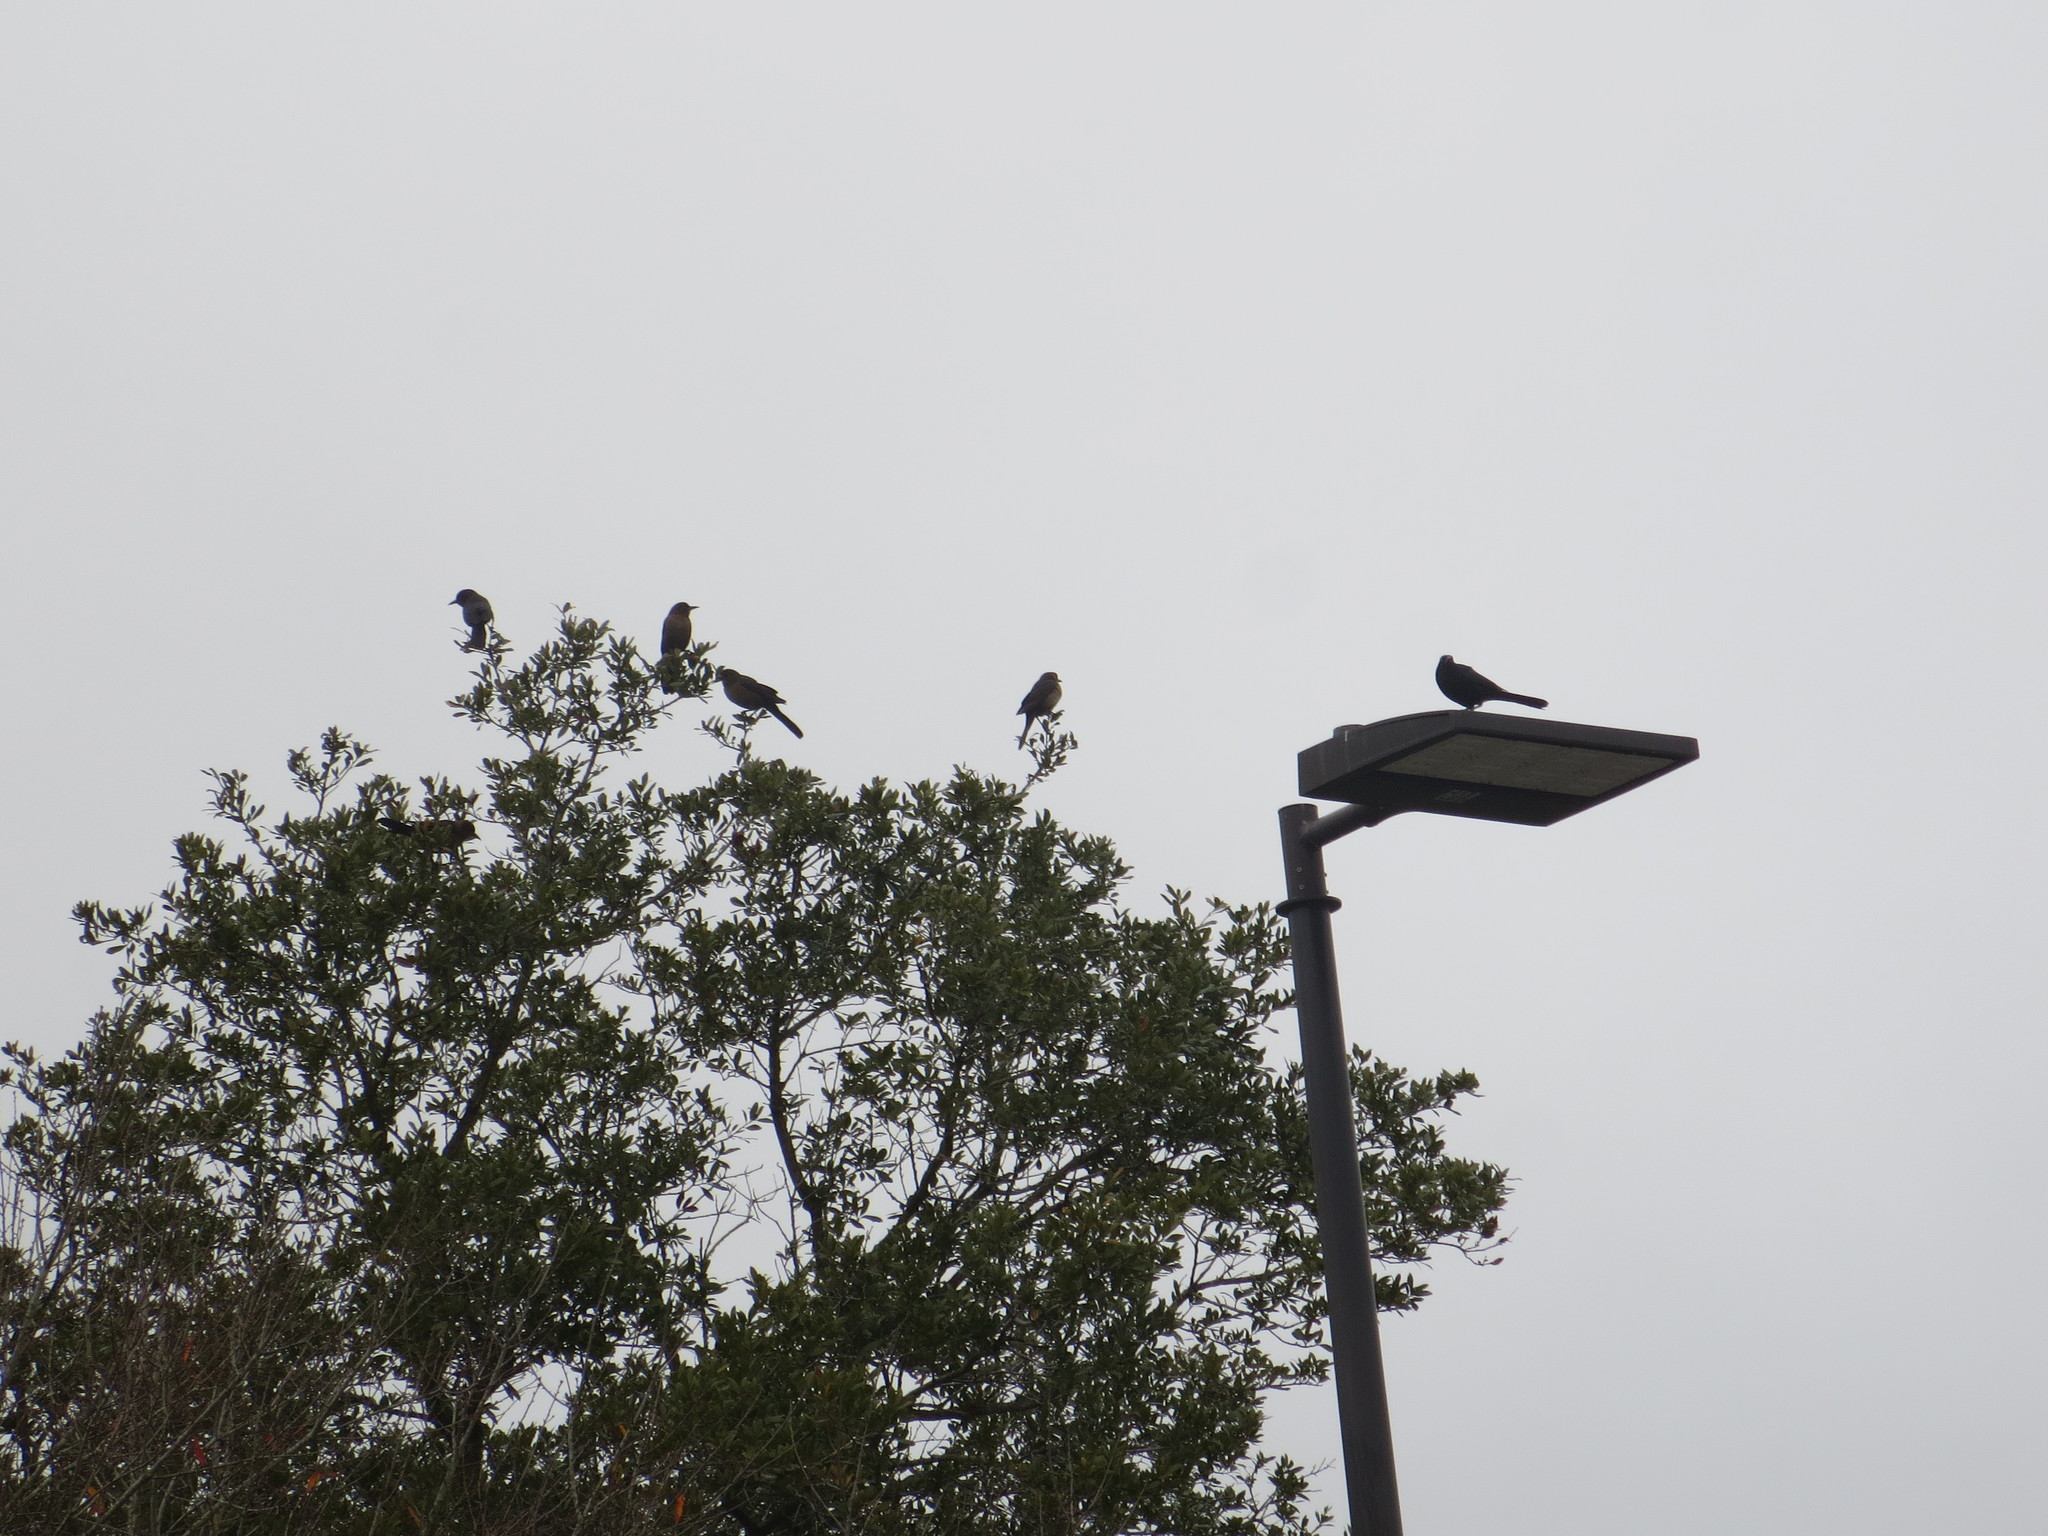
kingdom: Animalia
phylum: Chordata
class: Aves
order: Passeriformes
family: Icteridae
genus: Quiscalus
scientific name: Quiscalus major
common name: Boat-tailed grackle
